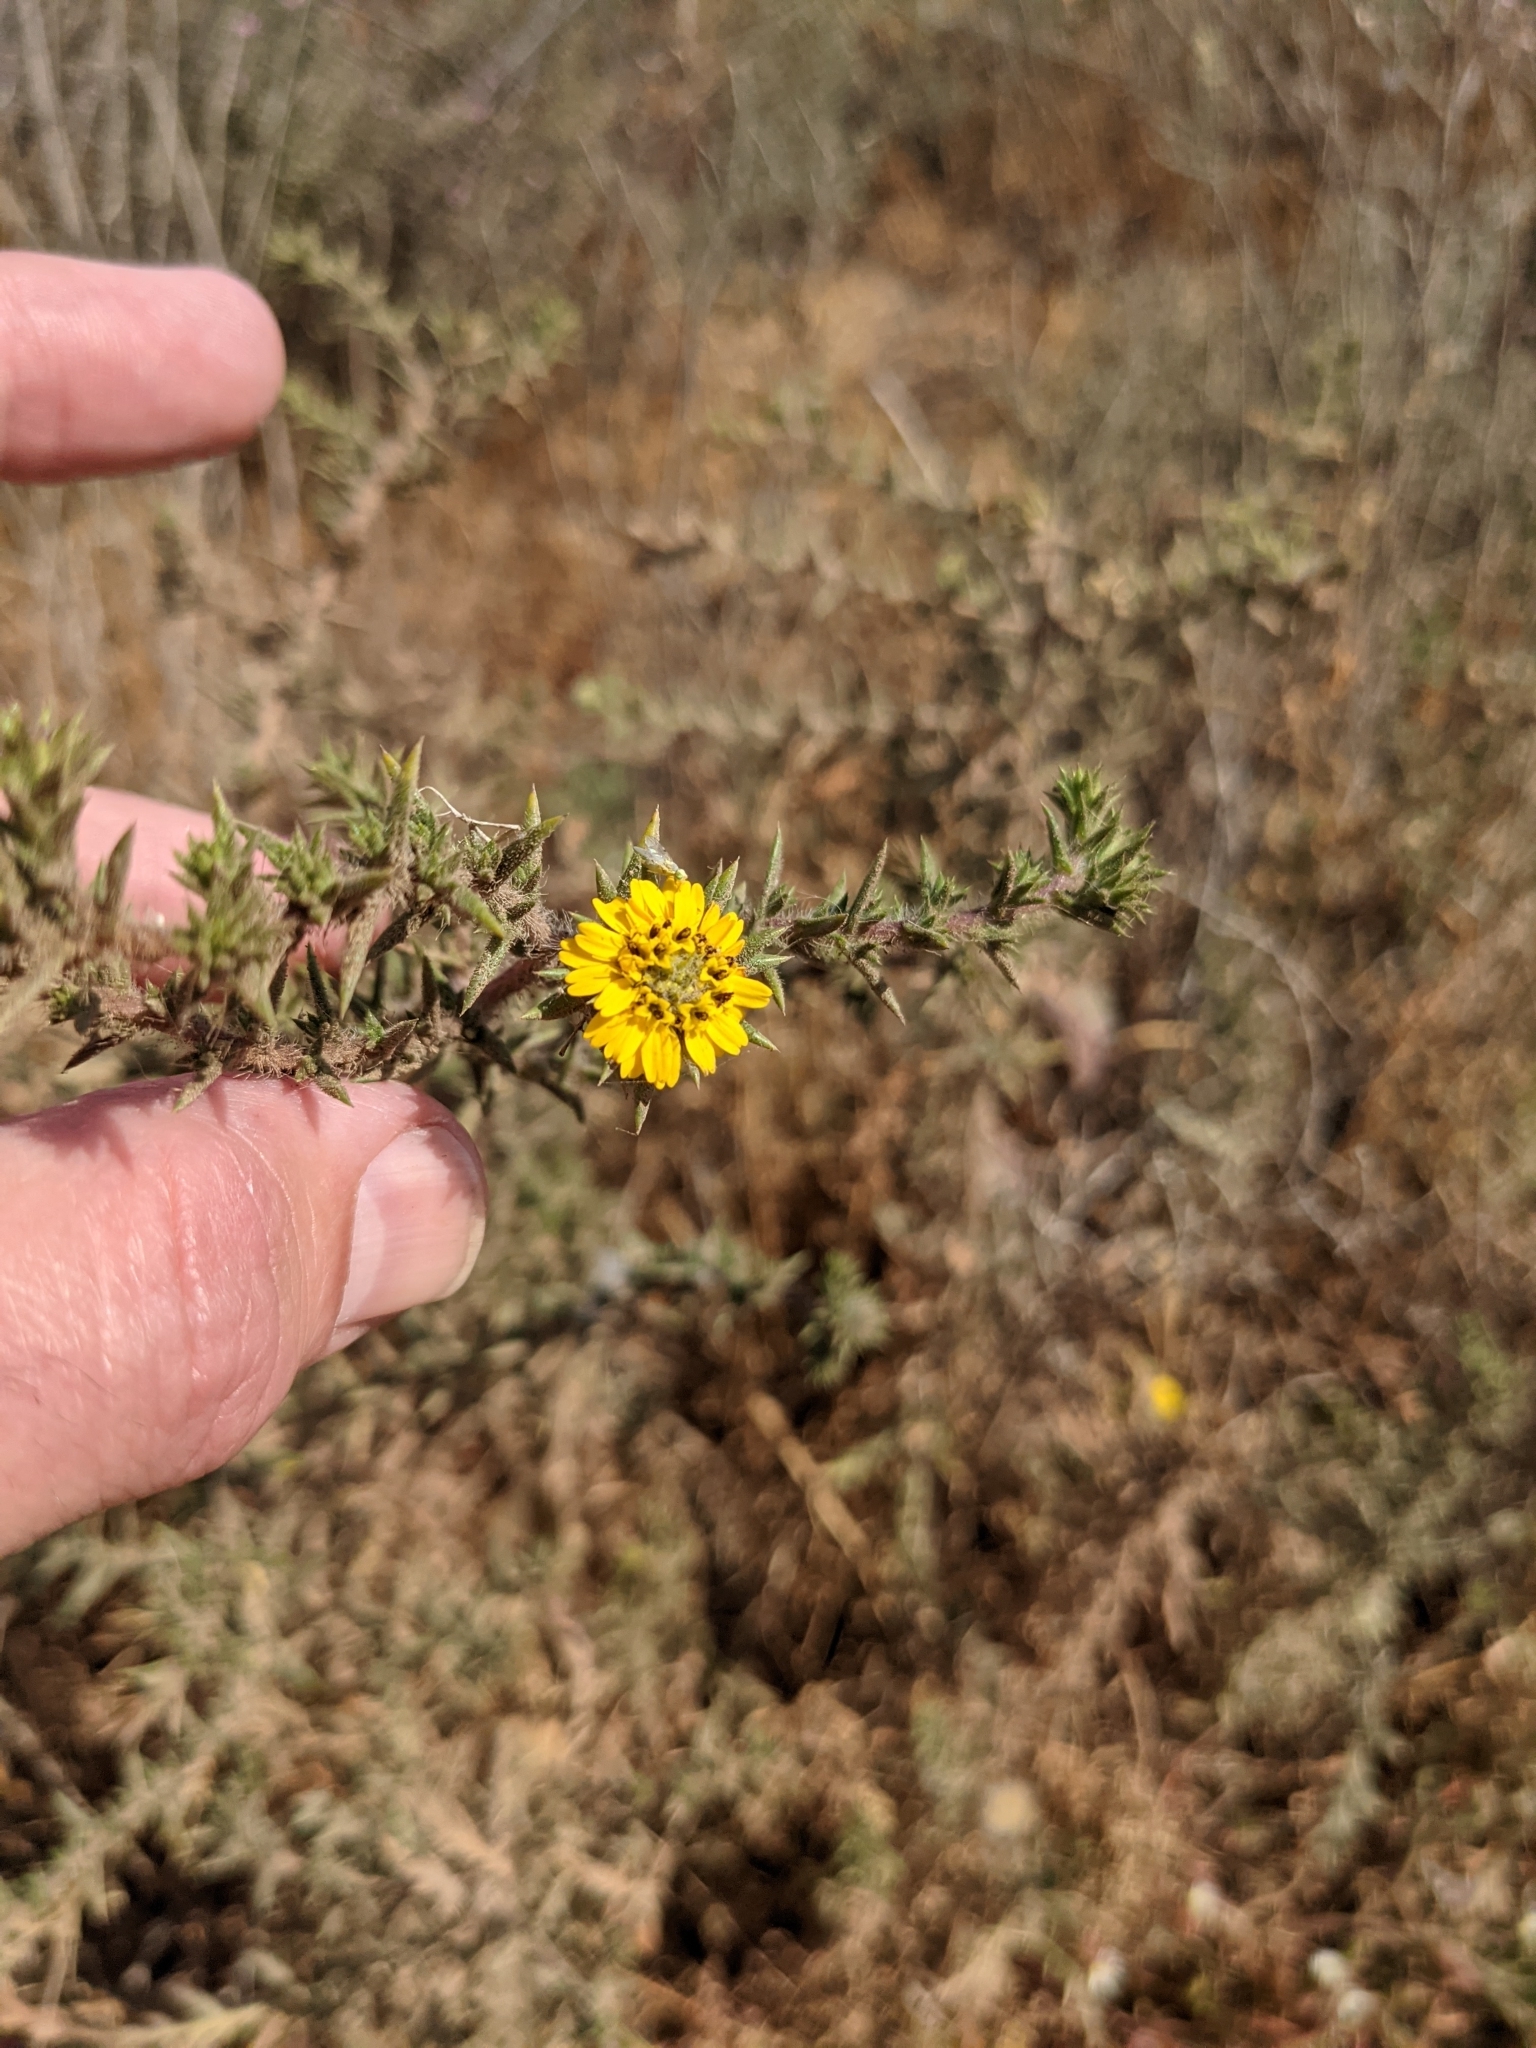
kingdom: Plantae
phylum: Tracheophyta
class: Magnoliopsida
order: Asterales
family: Asteraceae
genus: Centromadia
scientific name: Centromadia parryi
